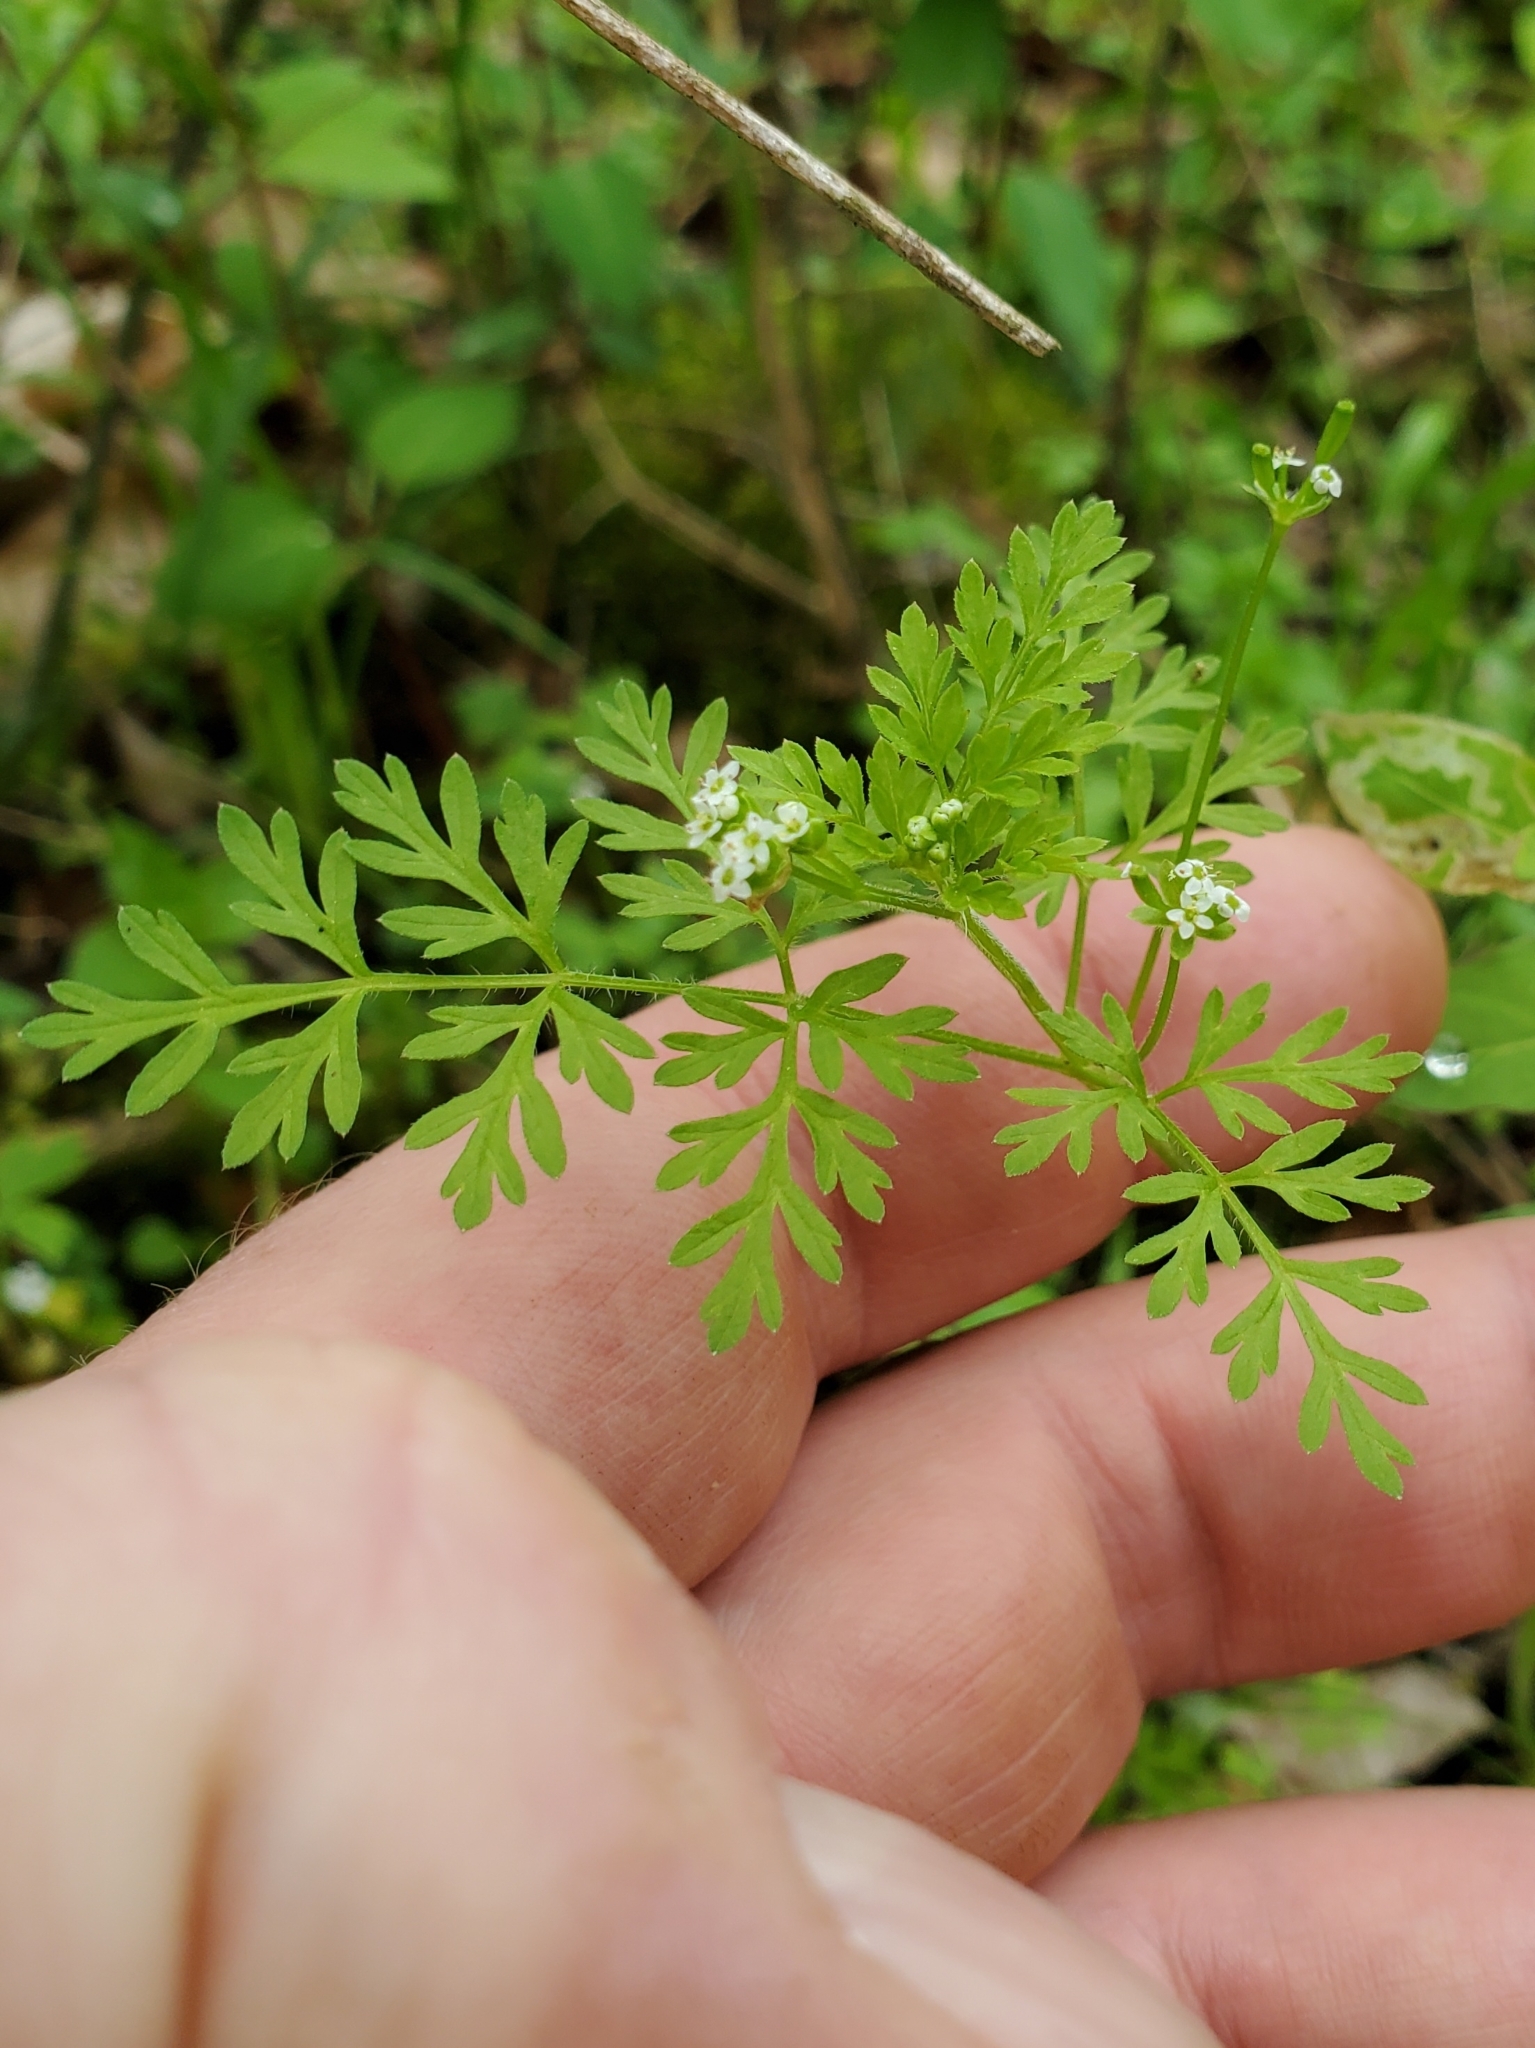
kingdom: Plantae
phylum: Tracheophyta
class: Magnoliopsida
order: Apiales
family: Apiaceae
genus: Chaerophyllum
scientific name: Chaerophyllum tainturieri
